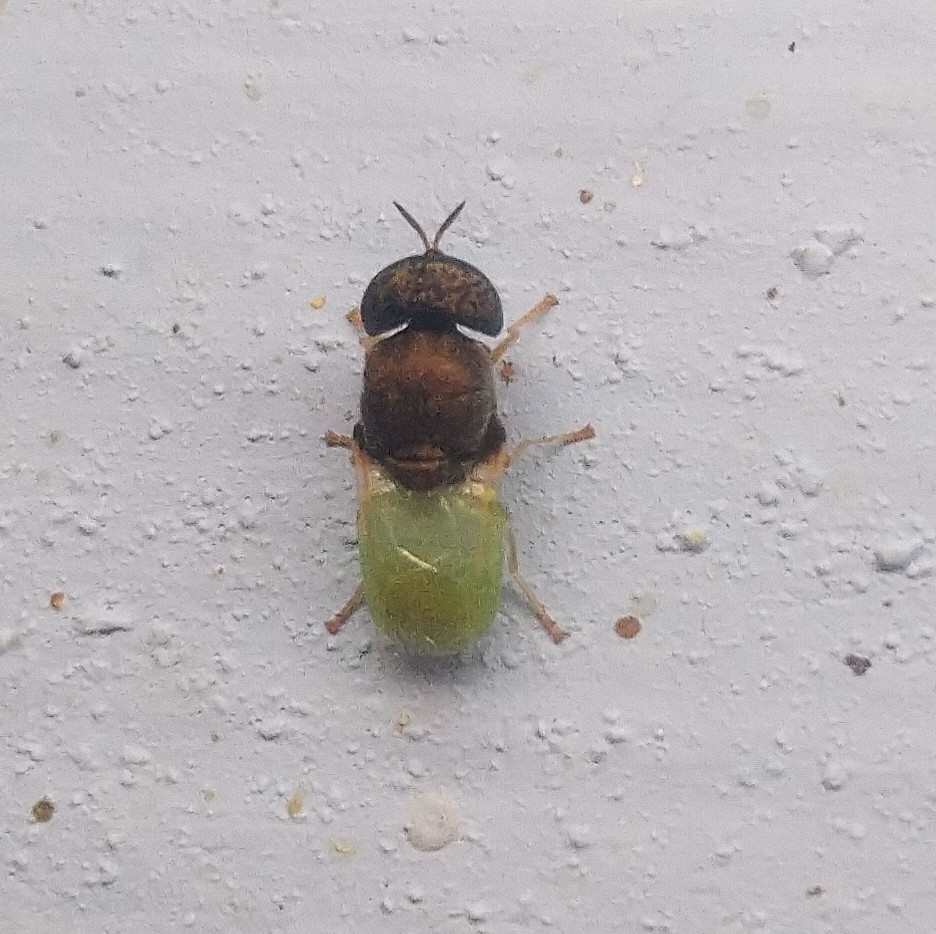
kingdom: Animalia
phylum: Arthropoda
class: Insecta
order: Diptera
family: Stratiomyidae
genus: Oplodontha
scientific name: Oplodontha rubrithorax
